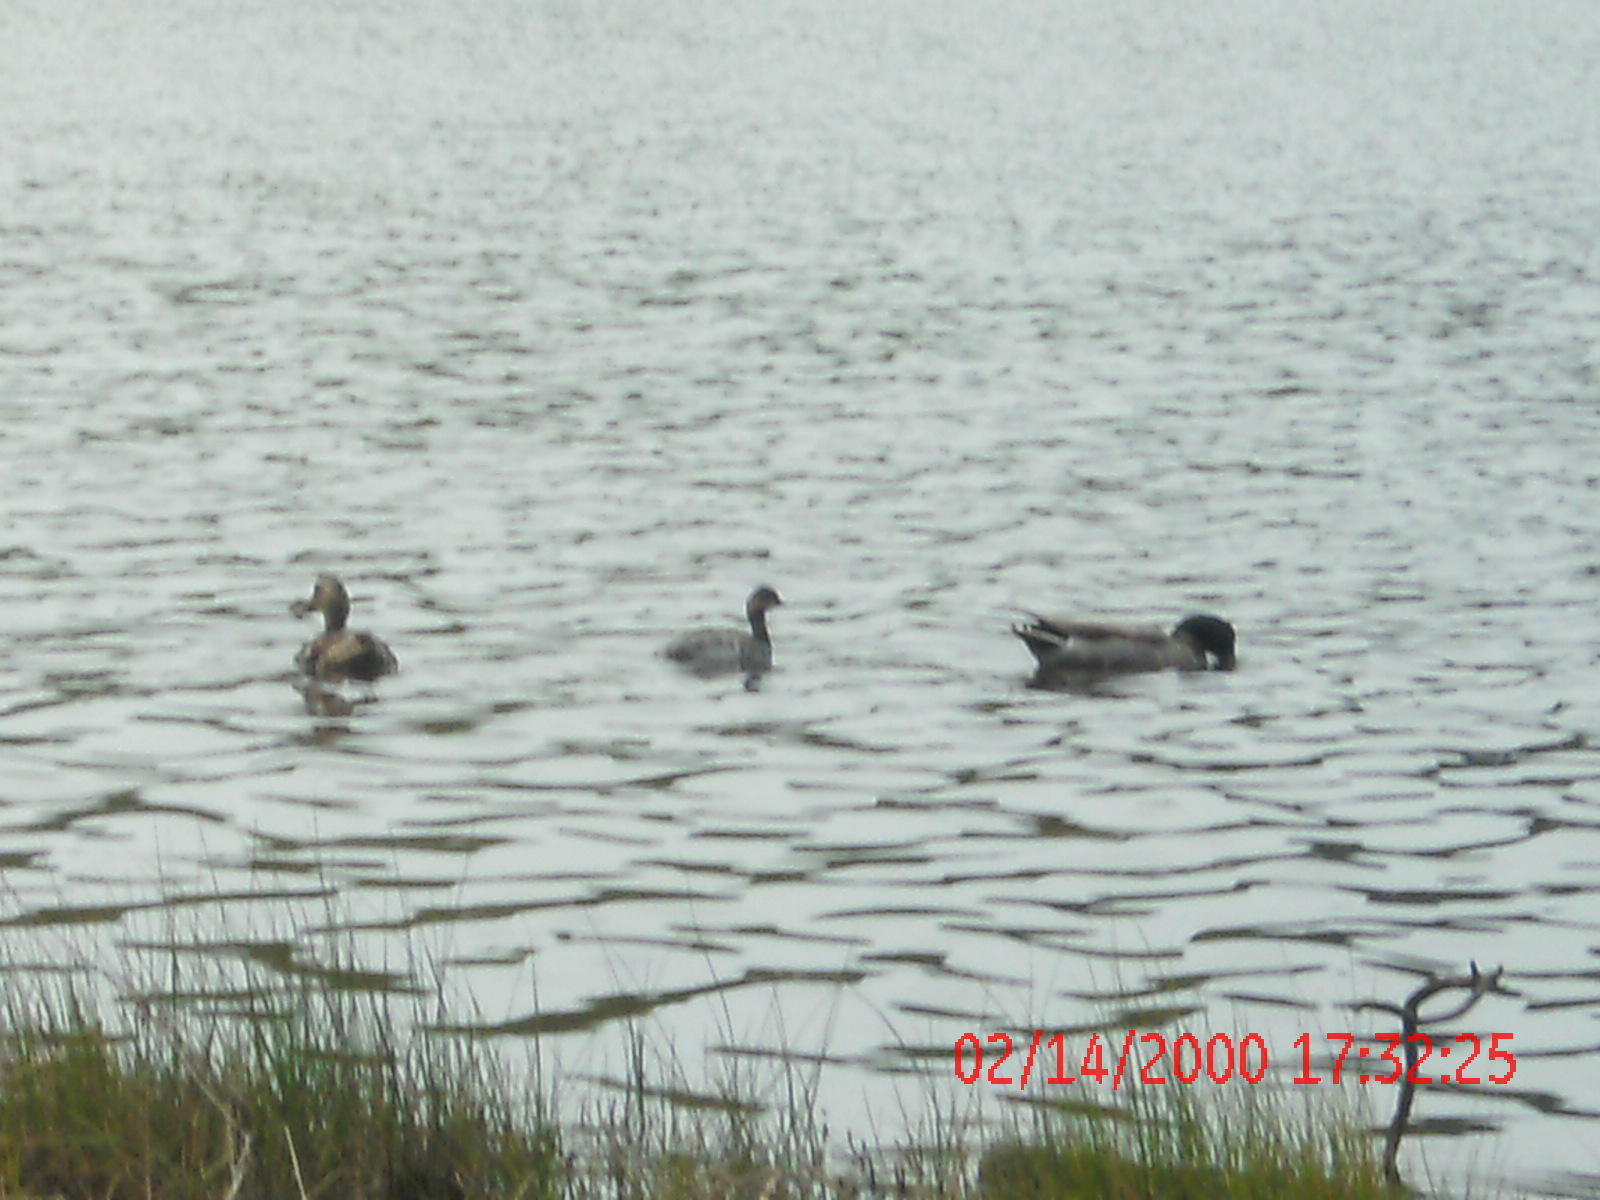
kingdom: Animalia
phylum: Chordata
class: Aves
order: Podicipediformes
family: Podicipedidae
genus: Podiceps
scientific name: Podiceps nigricollis
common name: Black-necked grebe
